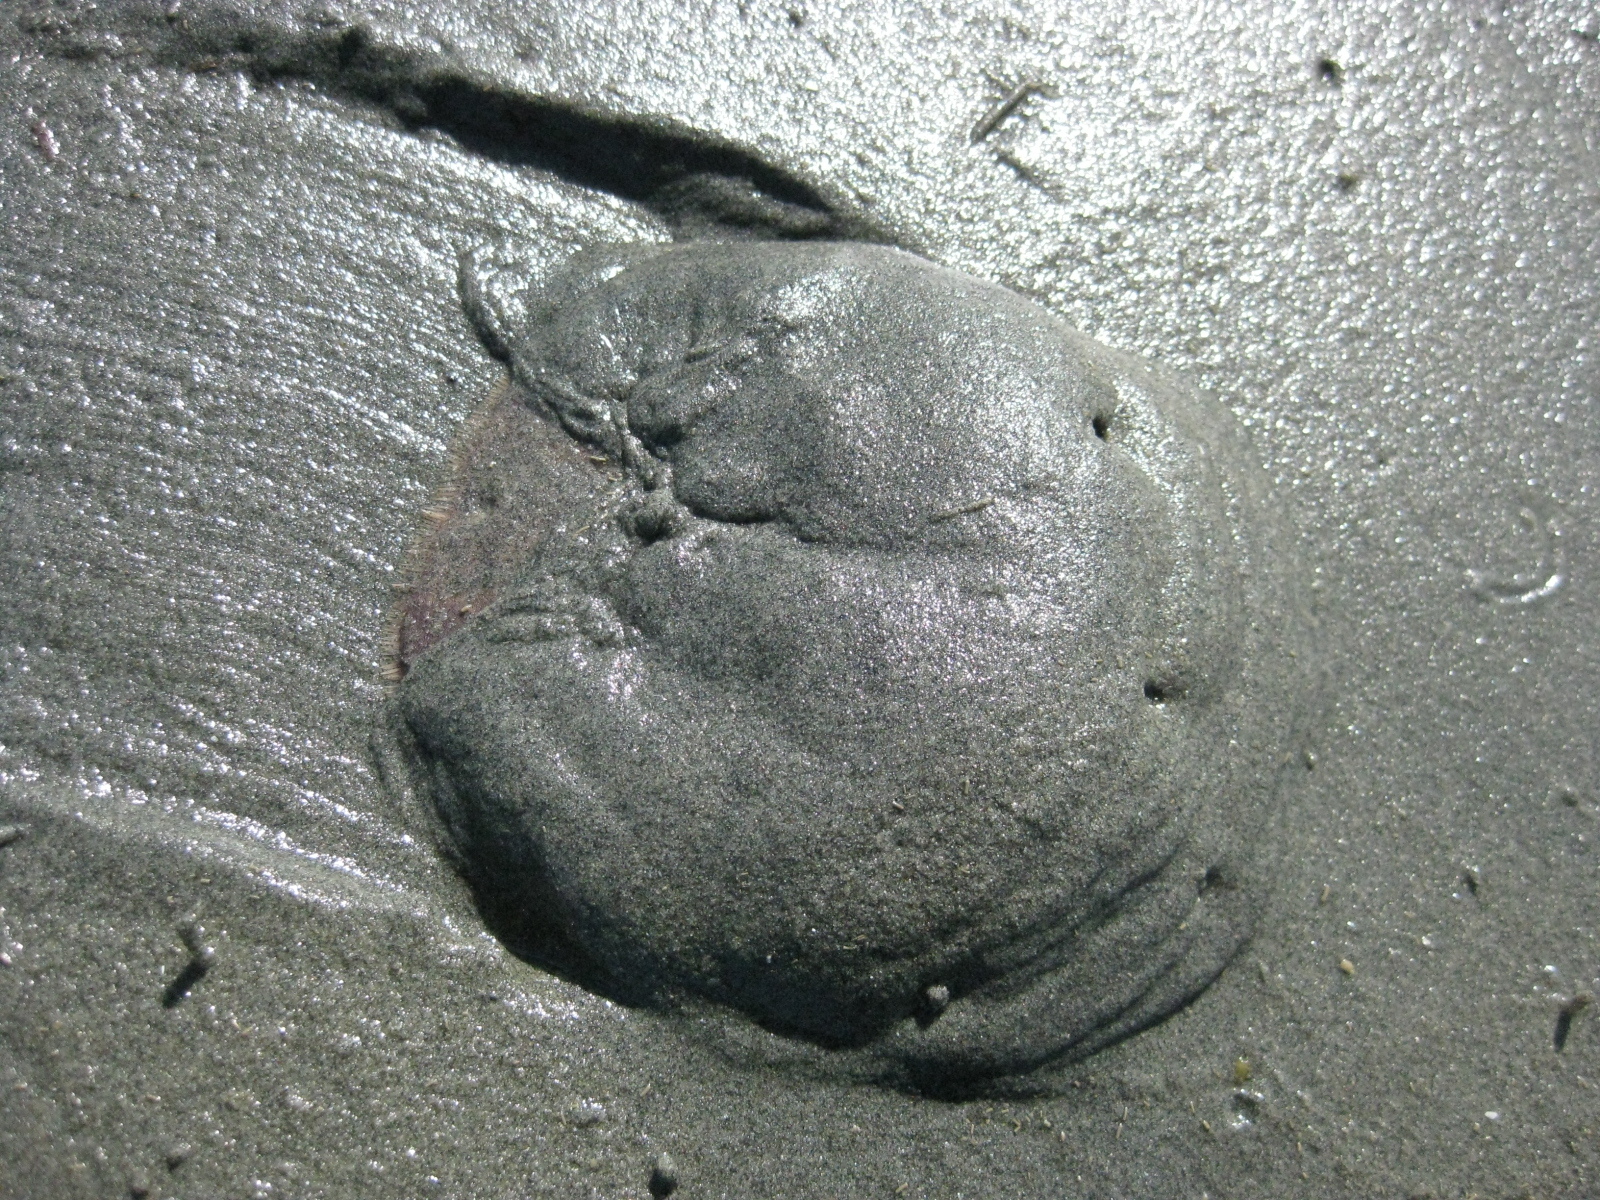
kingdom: Animalia
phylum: Echinodermata
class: Echinoidea
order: Clypeasteroida
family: Clypeasteridae
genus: Fellaster
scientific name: Fellaster zelandiae
